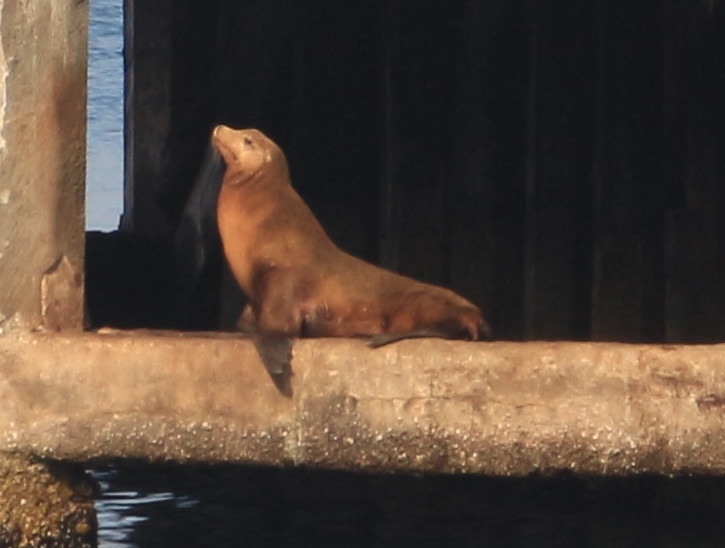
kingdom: Animalia
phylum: Chordata
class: Mammalia
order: Carnivora
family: Otariidae
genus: Zalophus
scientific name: Zalophus californianus
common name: California sea lion
